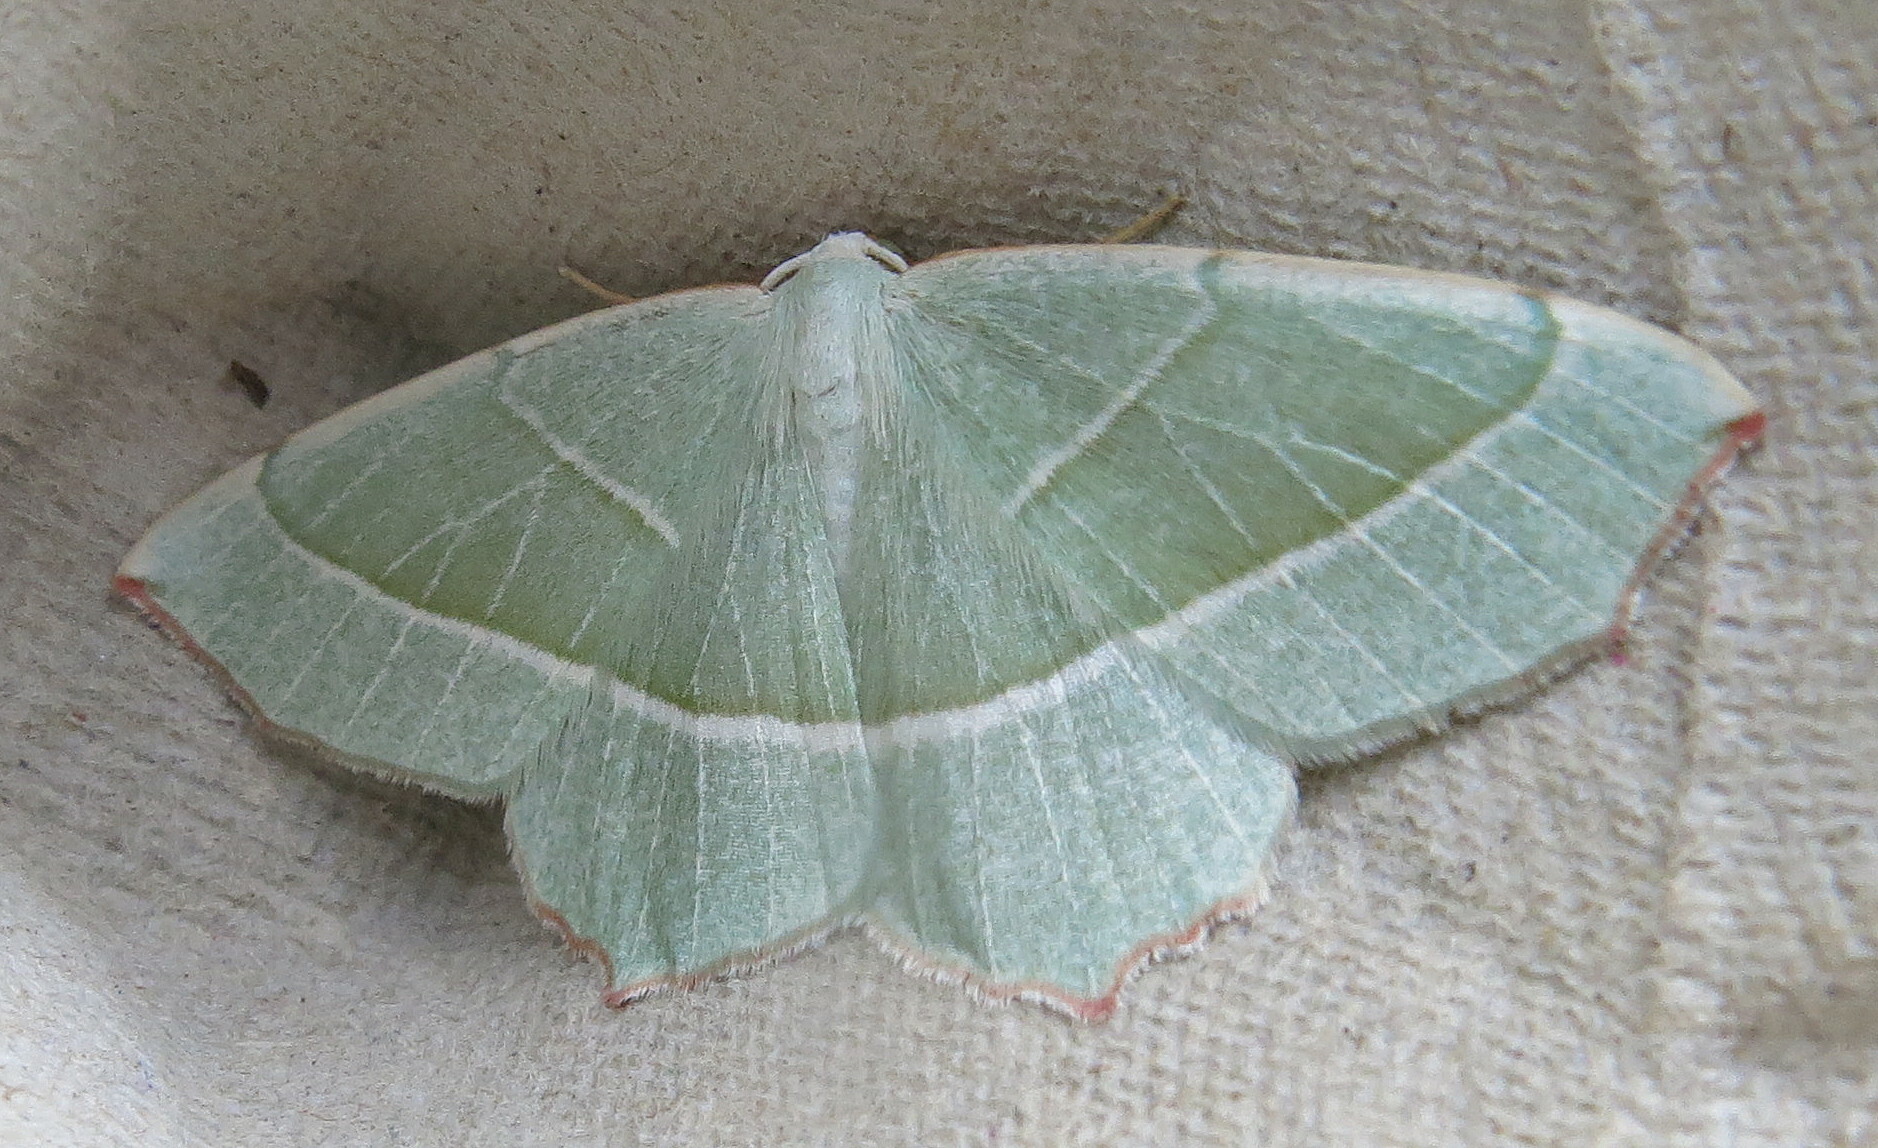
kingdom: Animalia
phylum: Arthropoda
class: Insecta
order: Lepidoptera
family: Geometridae
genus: Campaea
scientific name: Campaea margaritaria
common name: Light emerald
